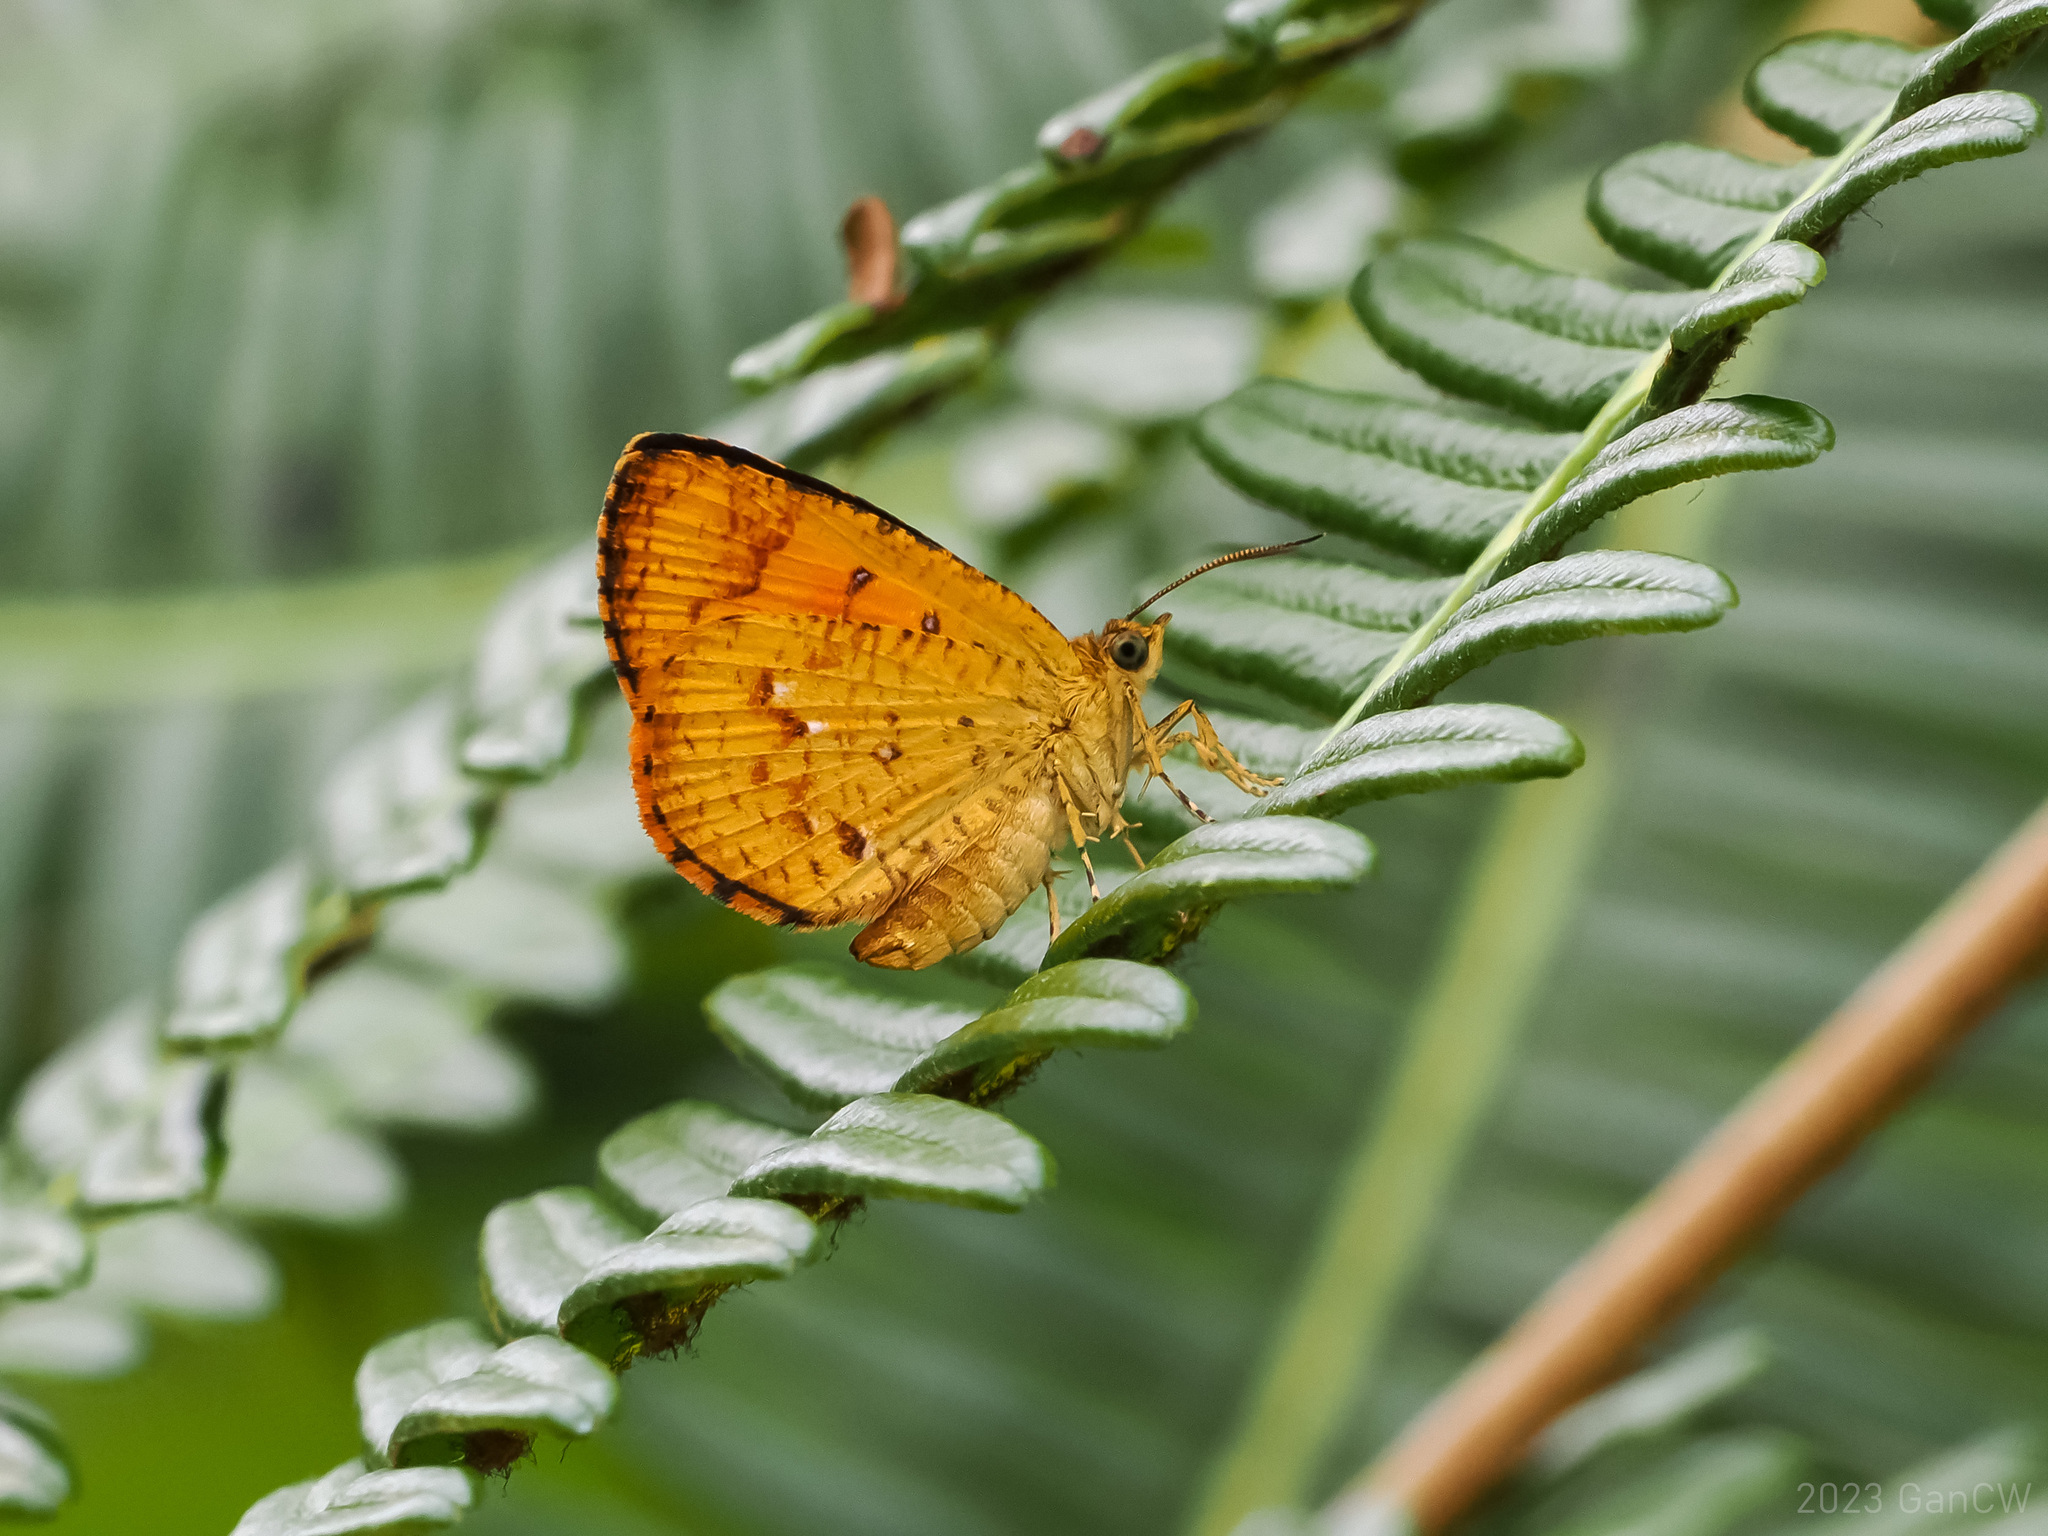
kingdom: Animalia
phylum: Arthropoda
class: Insecta
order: Lepidoptera
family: Callidulidae
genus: Callidula
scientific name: Callidula waterstradti
